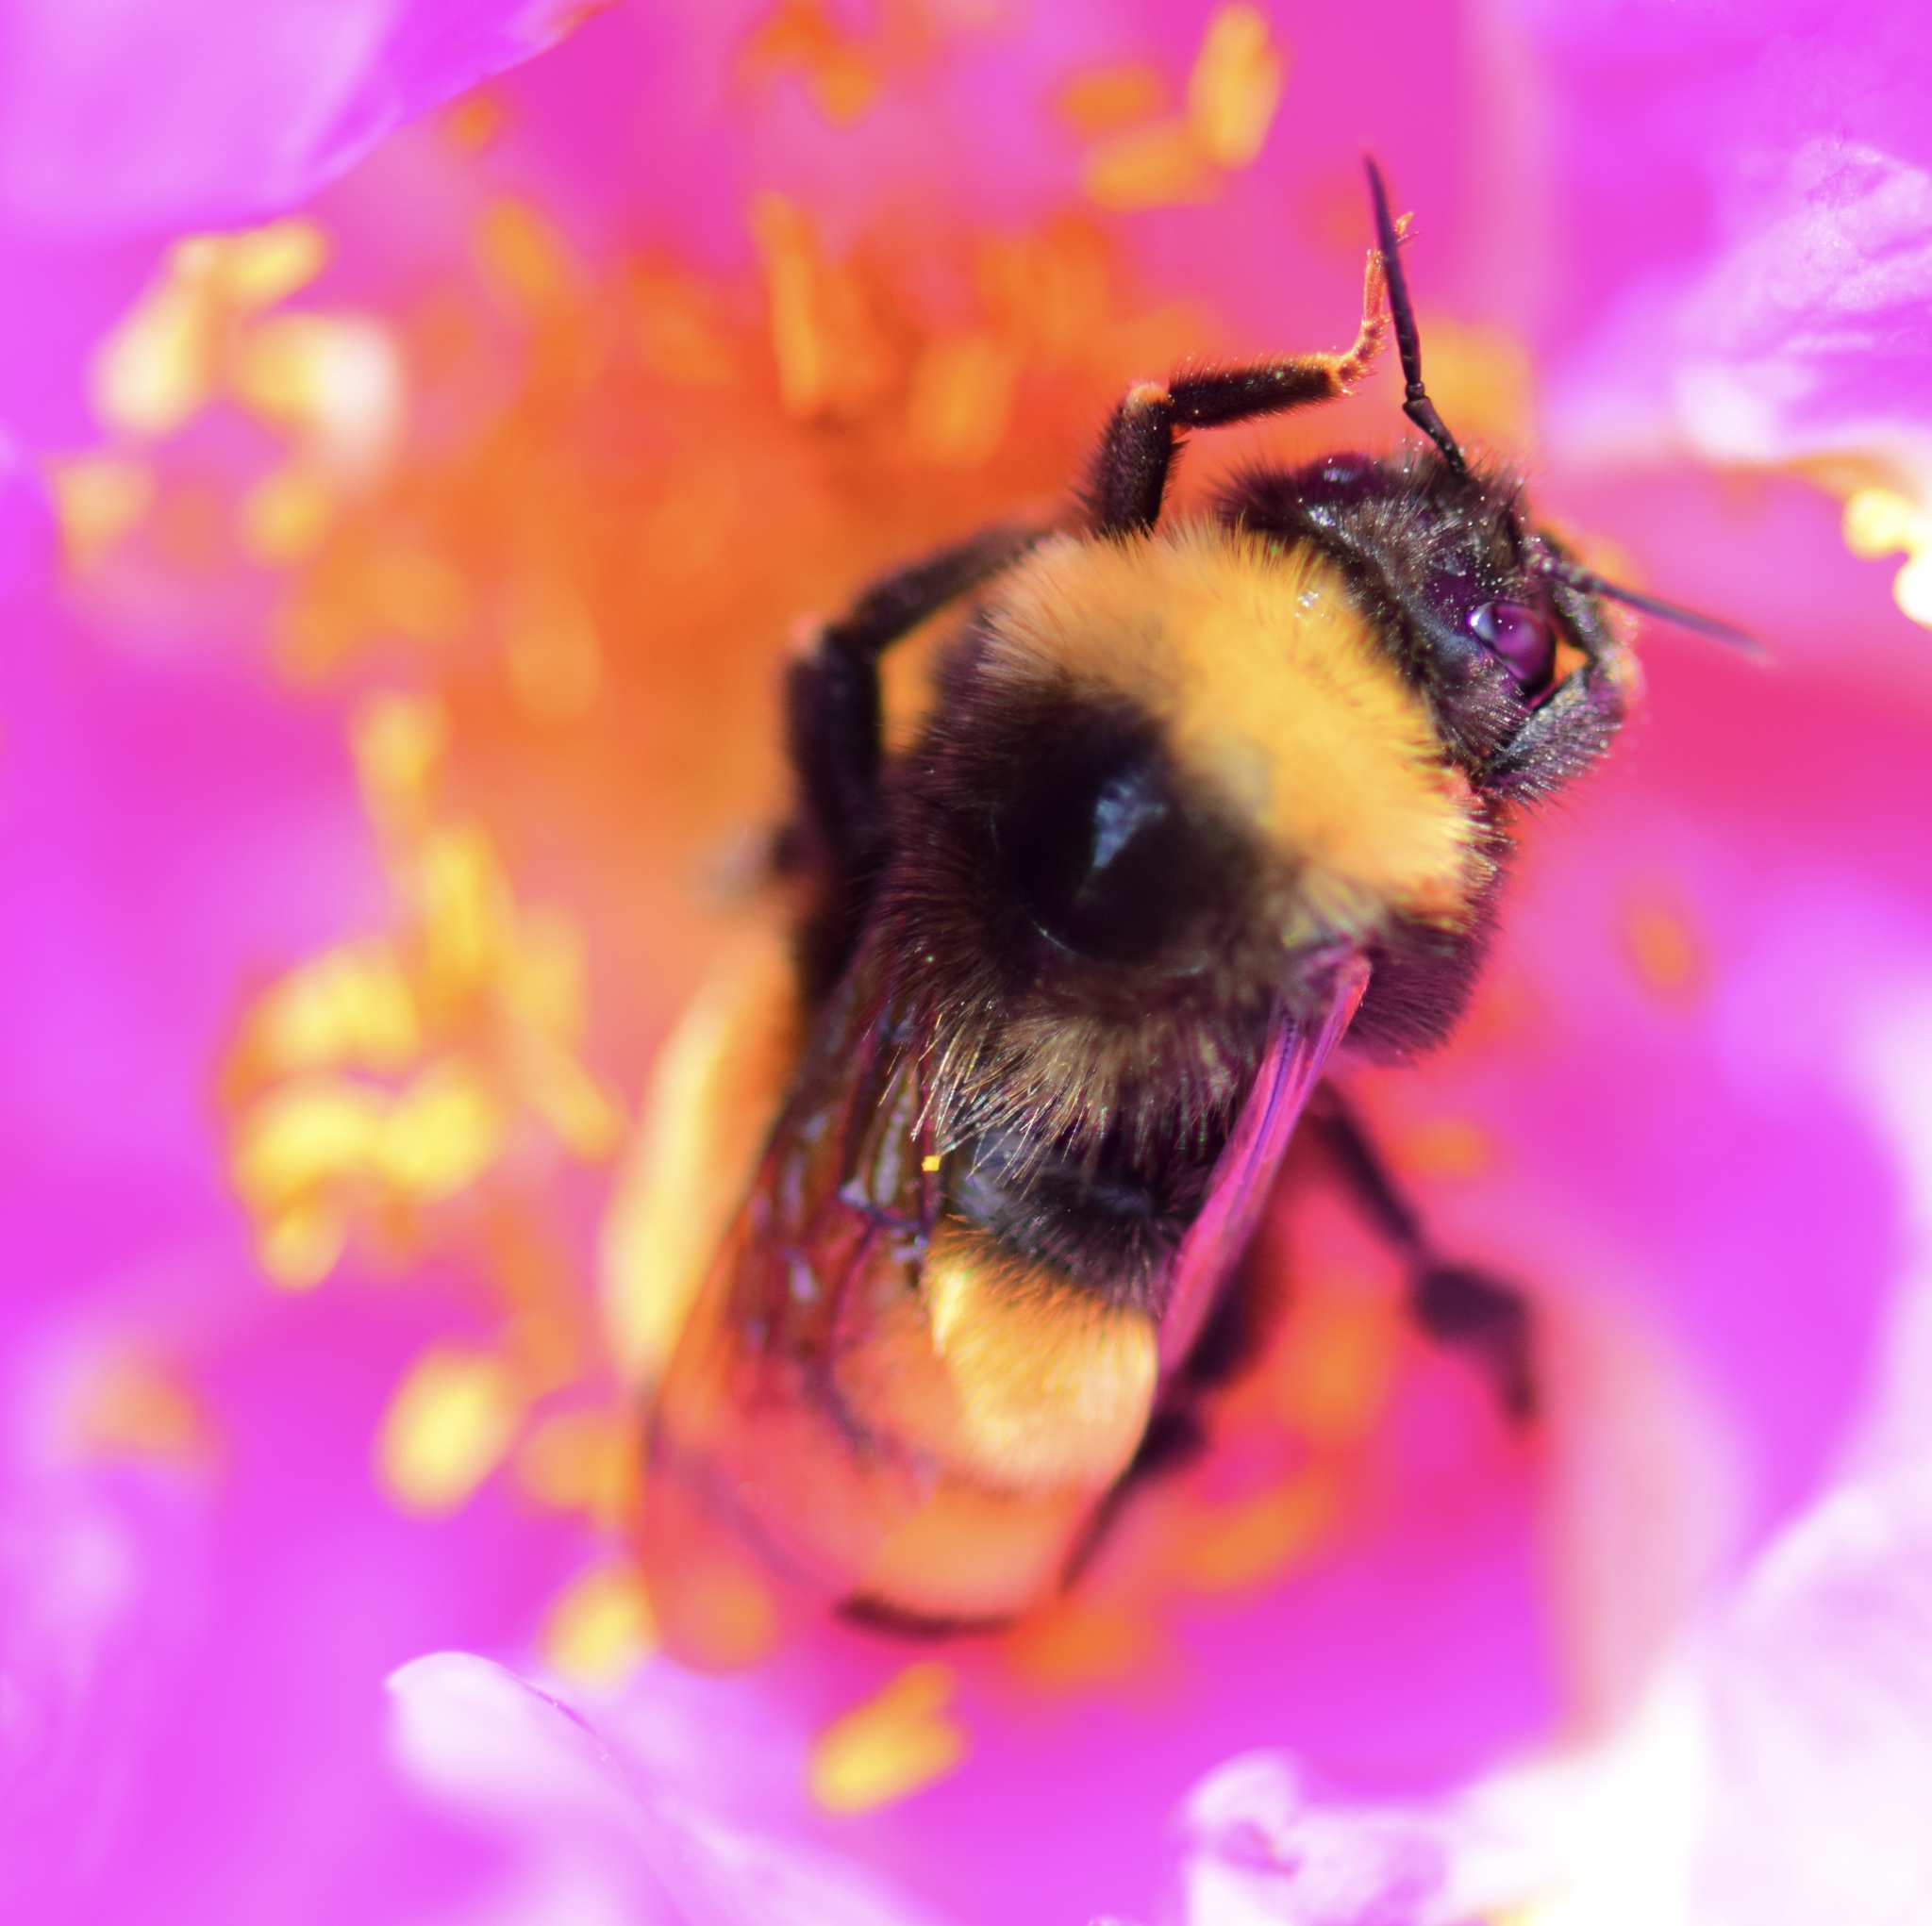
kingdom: Animalia
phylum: Arthropoda
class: Insecta
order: Hymenoptera
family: Apidae
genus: Bombus
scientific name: Bombus terricola
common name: Yellow-banded bumble bee
